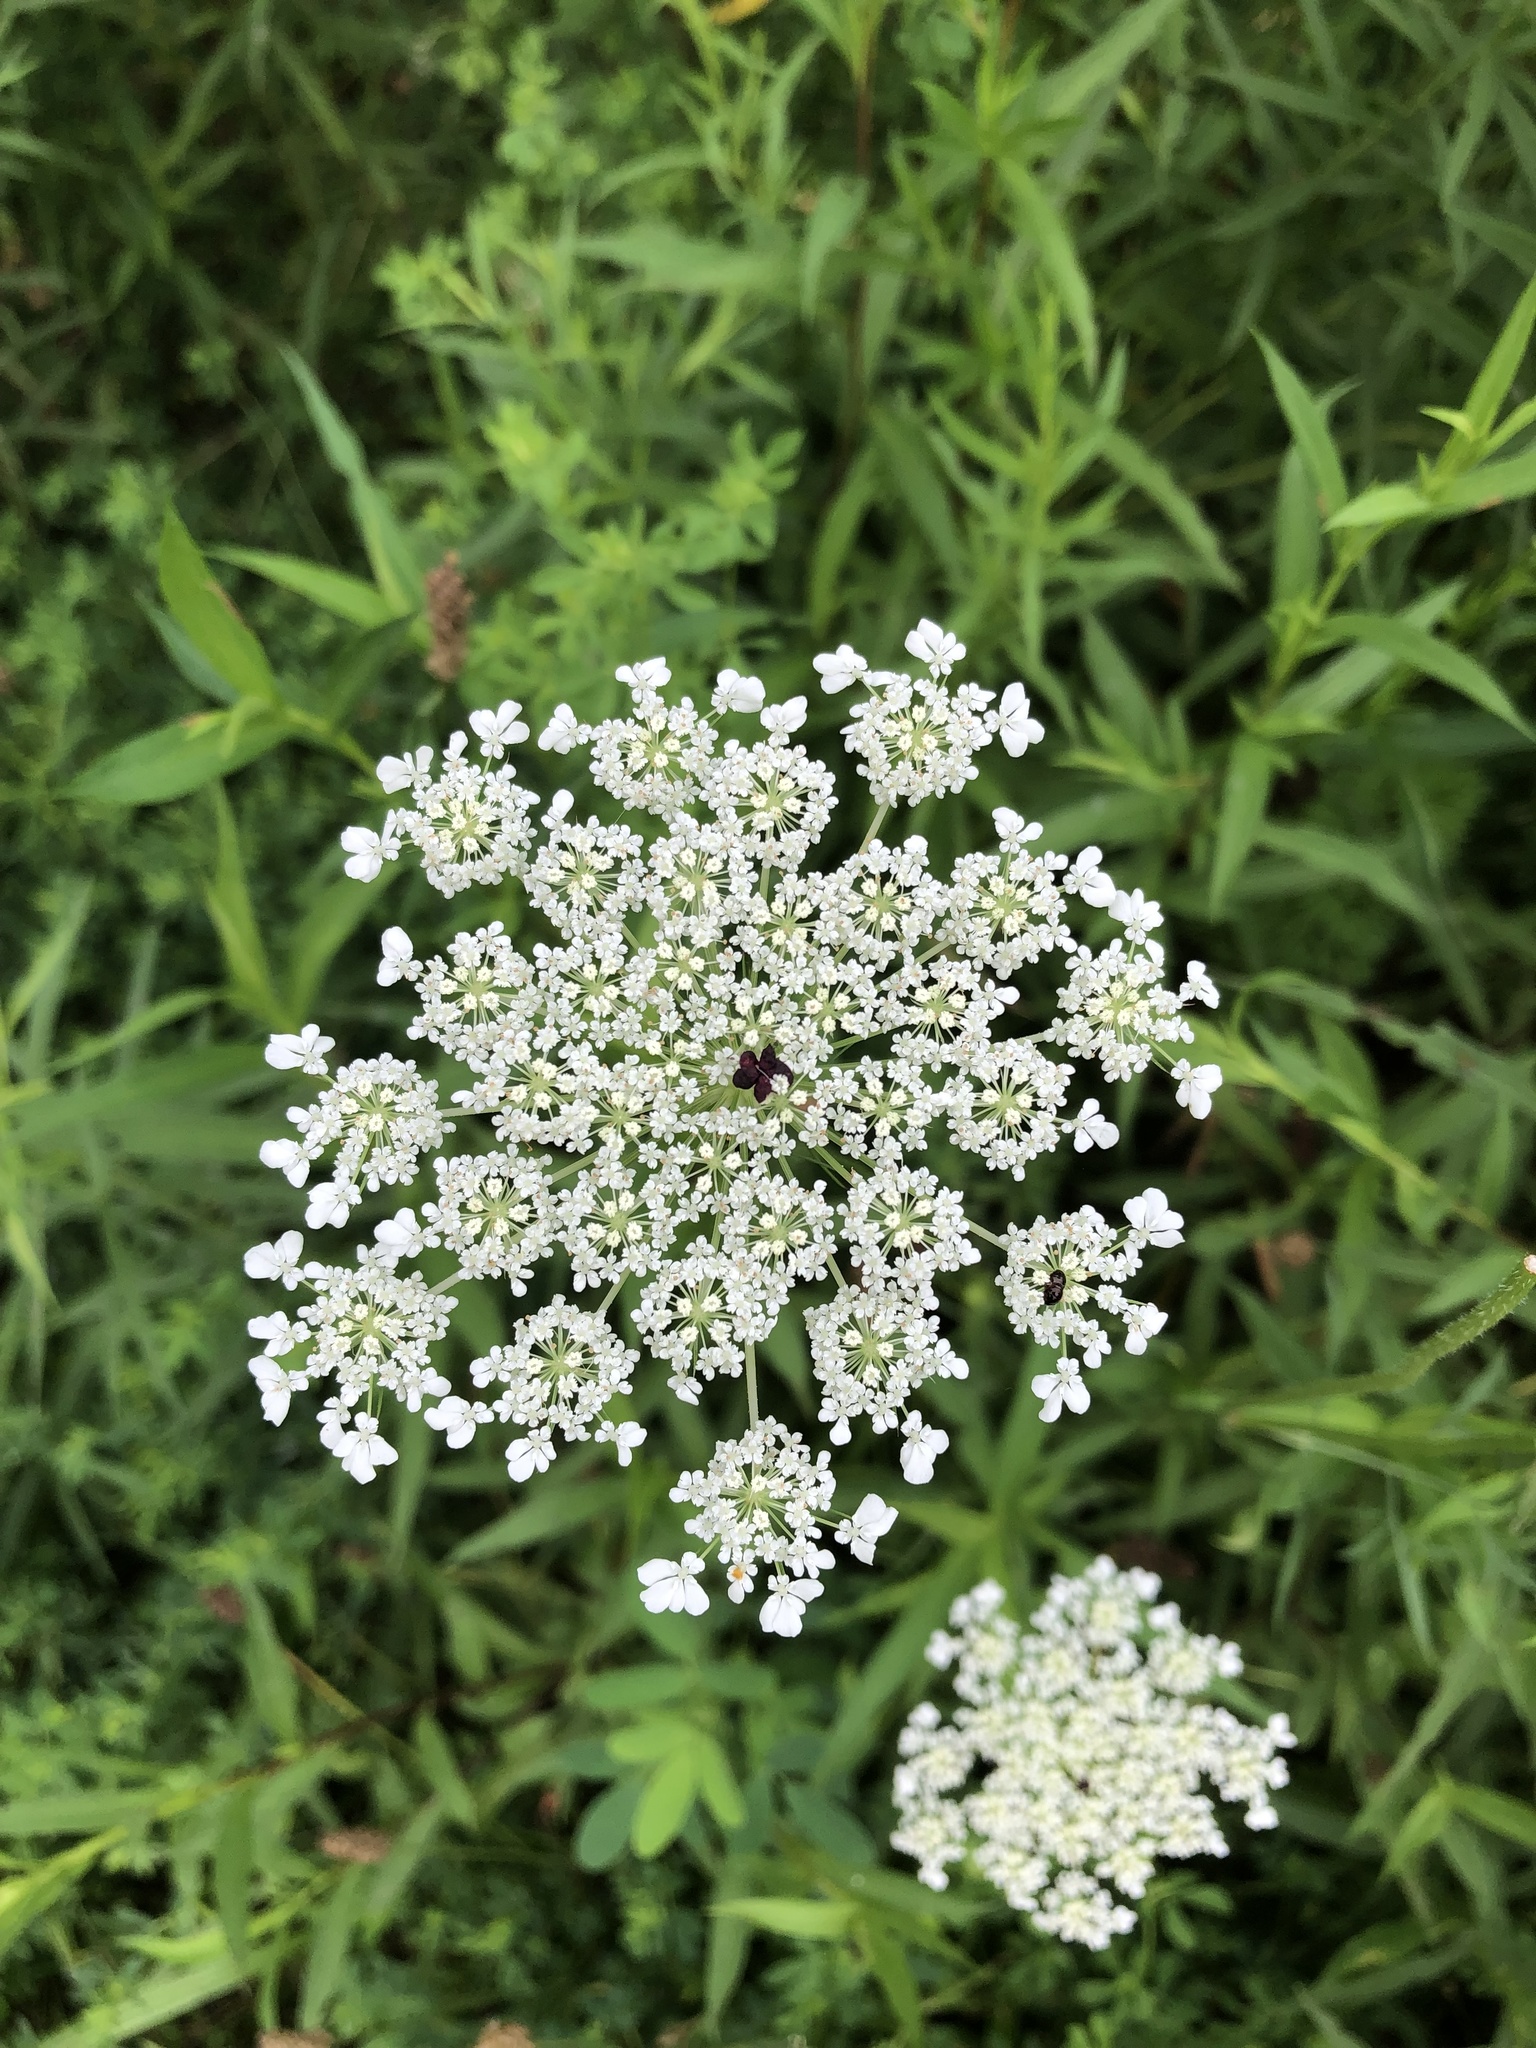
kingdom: Plantae
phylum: Tracheophyta
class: Magnoliopsida
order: Apiales
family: Apiaceae
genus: Daucus
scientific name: Daucus carota
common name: Wild carrot
